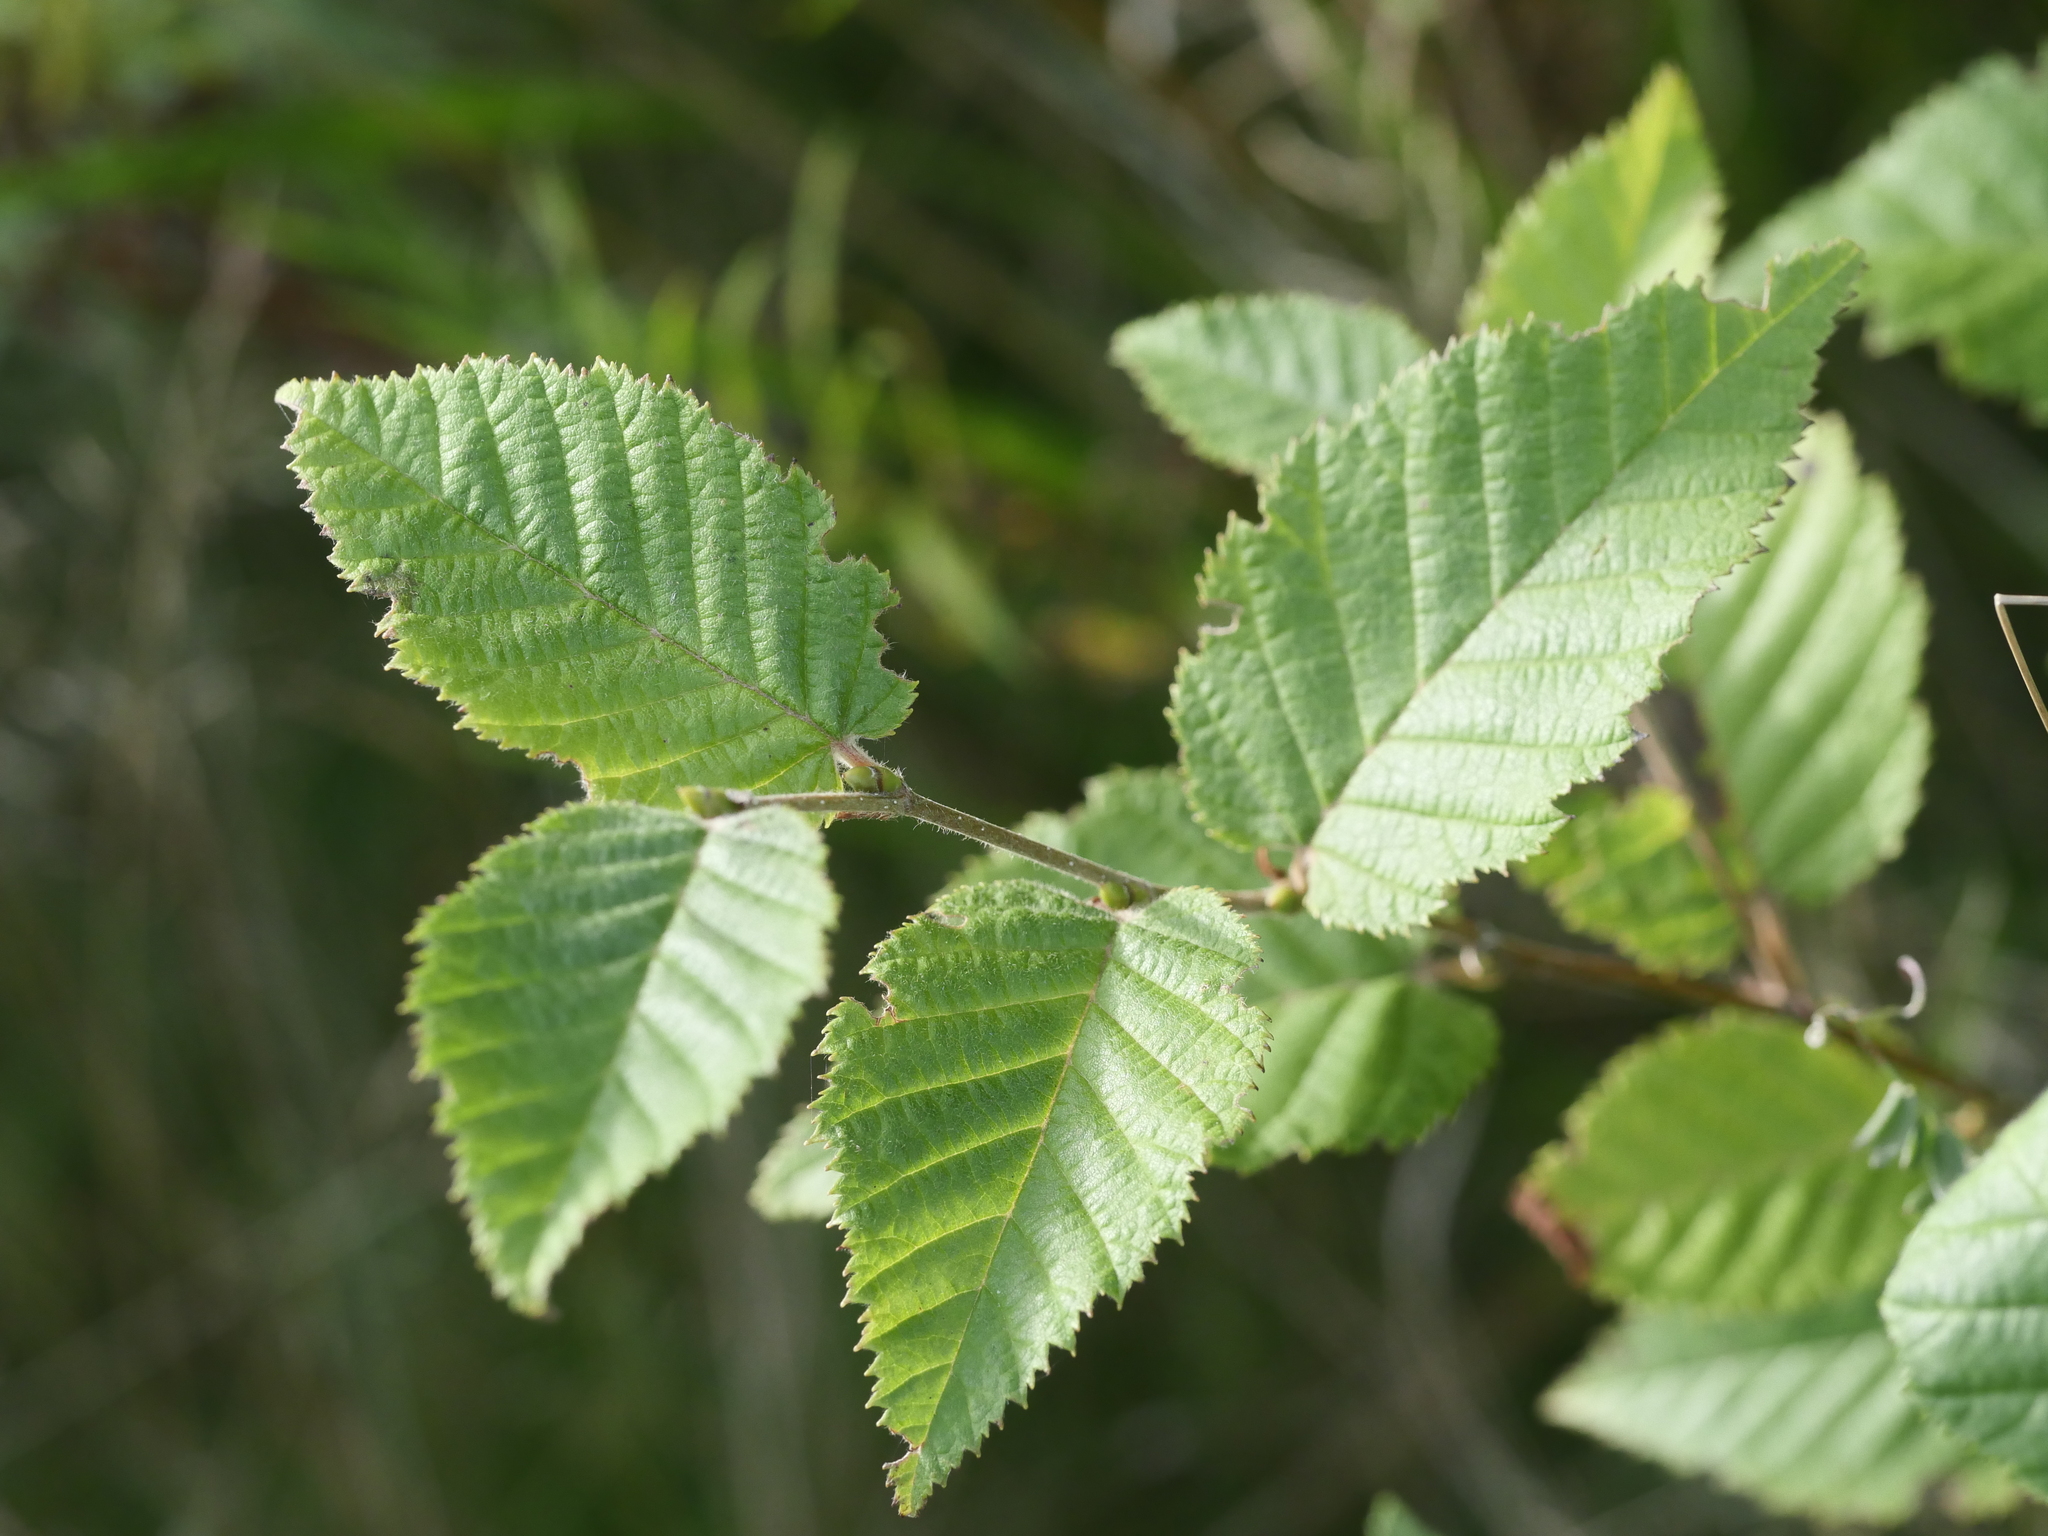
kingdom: Plantae
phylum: Tracheophyta
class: Magnoliopsida
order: Fagales
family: Betulaceae
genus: Betula
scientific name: Betula alleghaniensis
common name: Yellow birch
